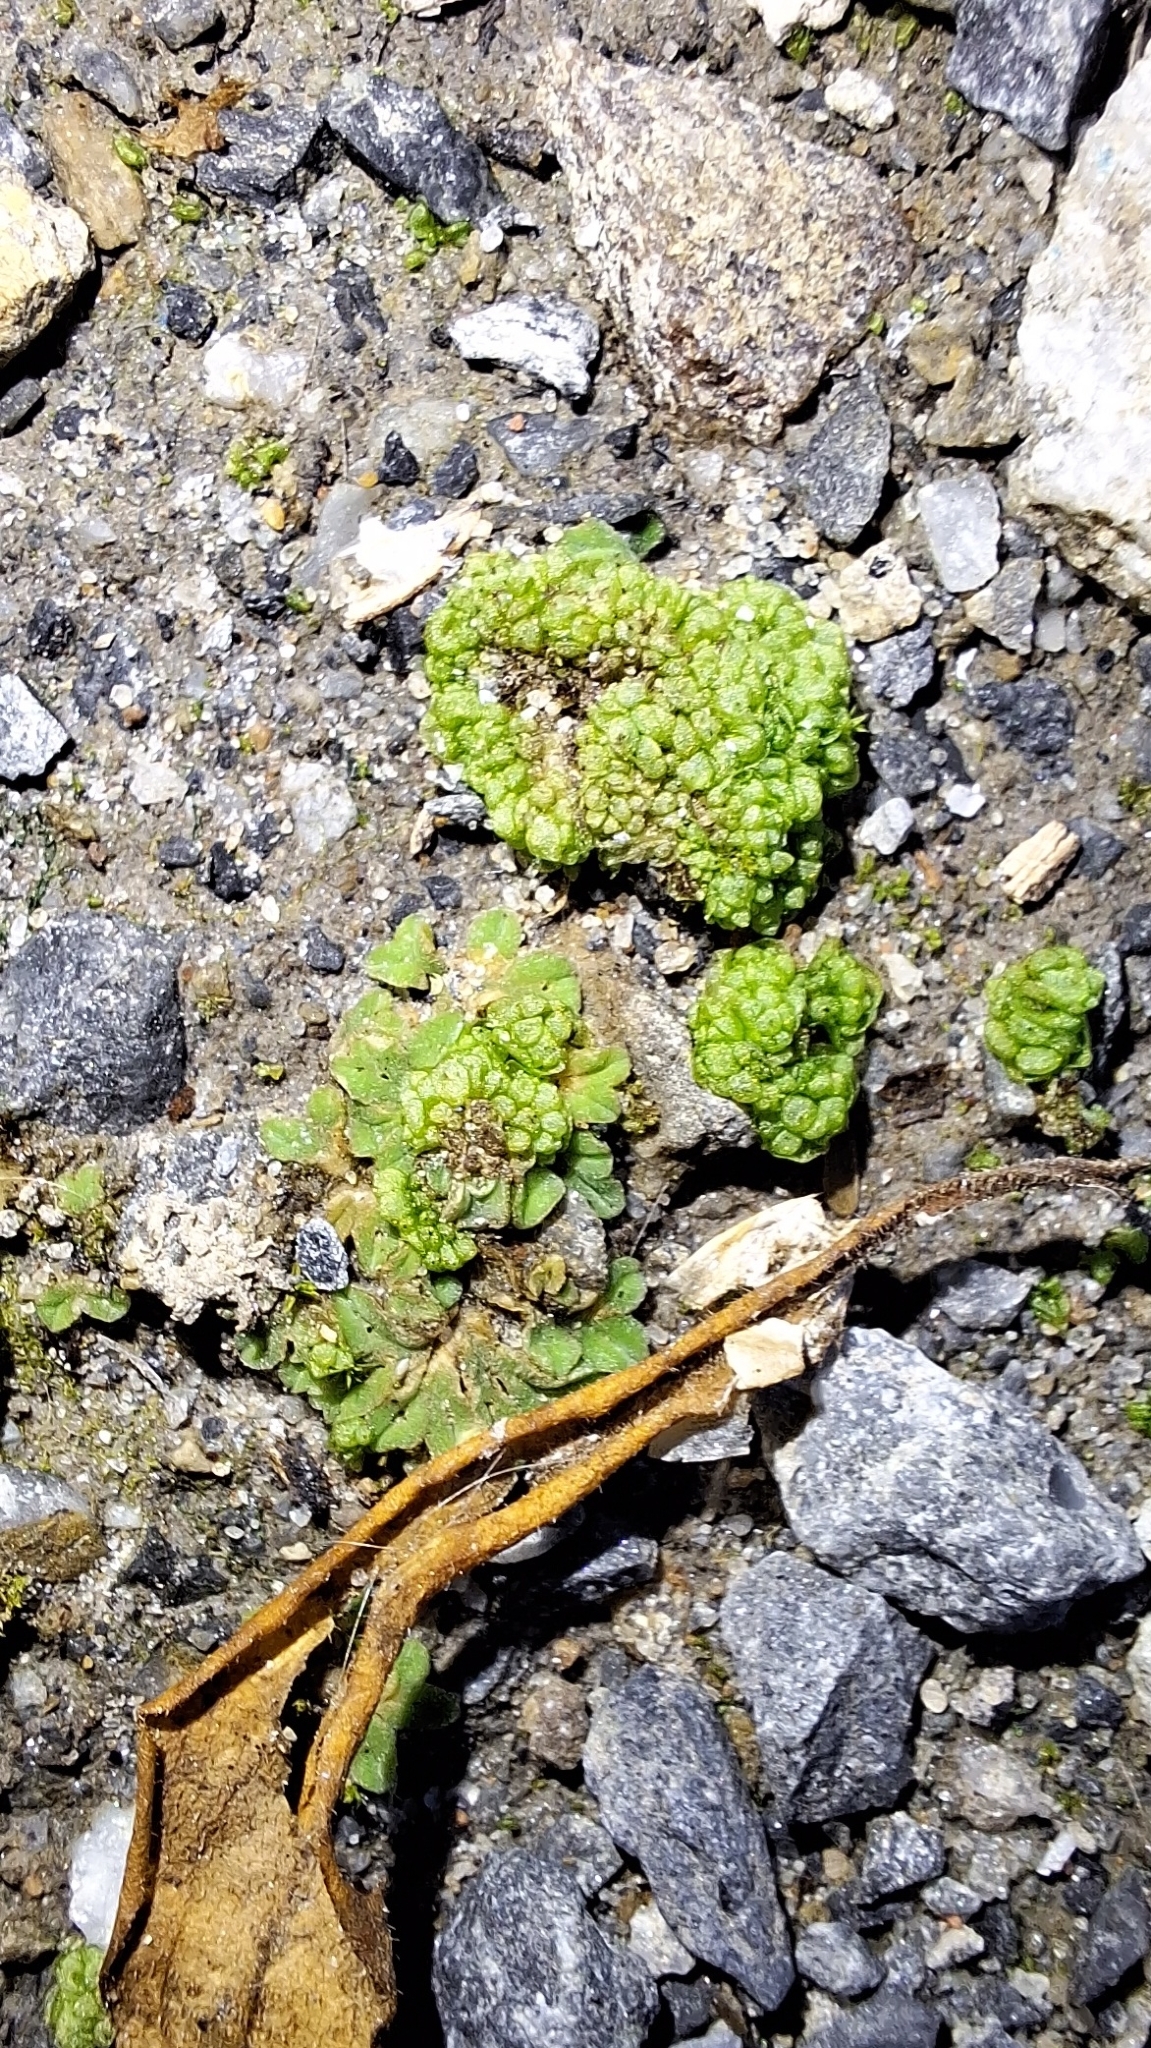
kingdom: Plantae
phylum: Marchantiophyta
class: Marchantiopsida
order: Sphaerocarpales
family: Sphaerocarpaceae
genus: Sphaerocarpos
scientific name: Sphaerocarpos texanus
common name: Texas balloonwort
